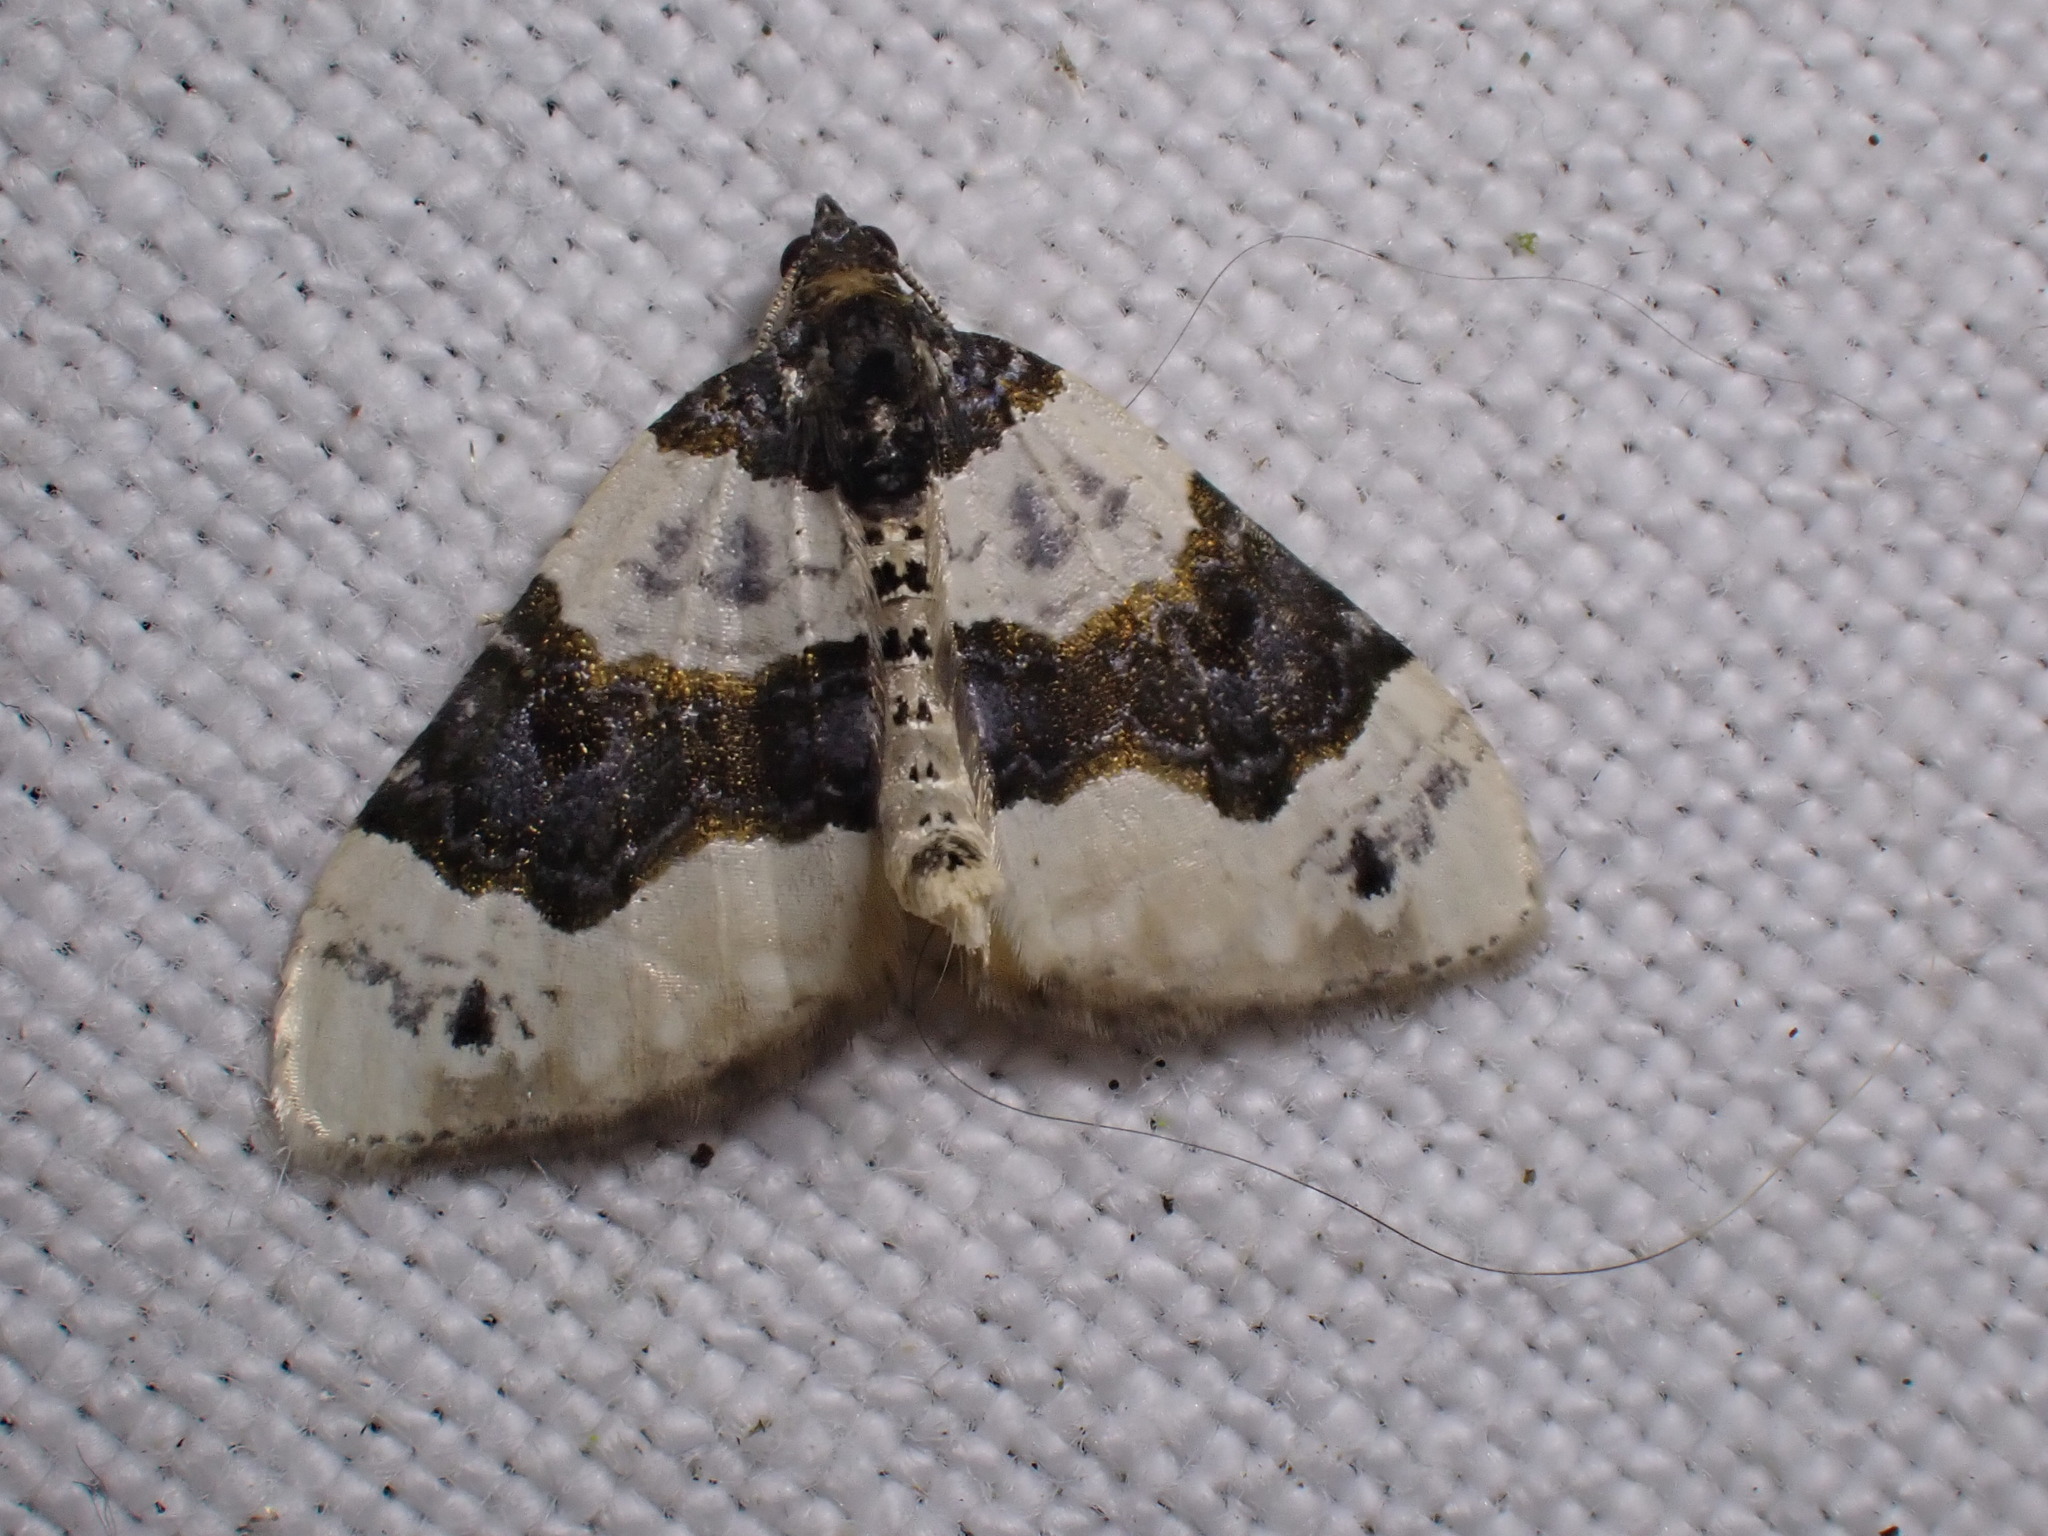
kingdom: Animalia
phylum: Arthropoda
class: Insecta
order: Lepidoptera
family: Geometridae
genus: Cosmorhoe
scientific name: Cosmorhoe ocellata
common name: Purple bar
